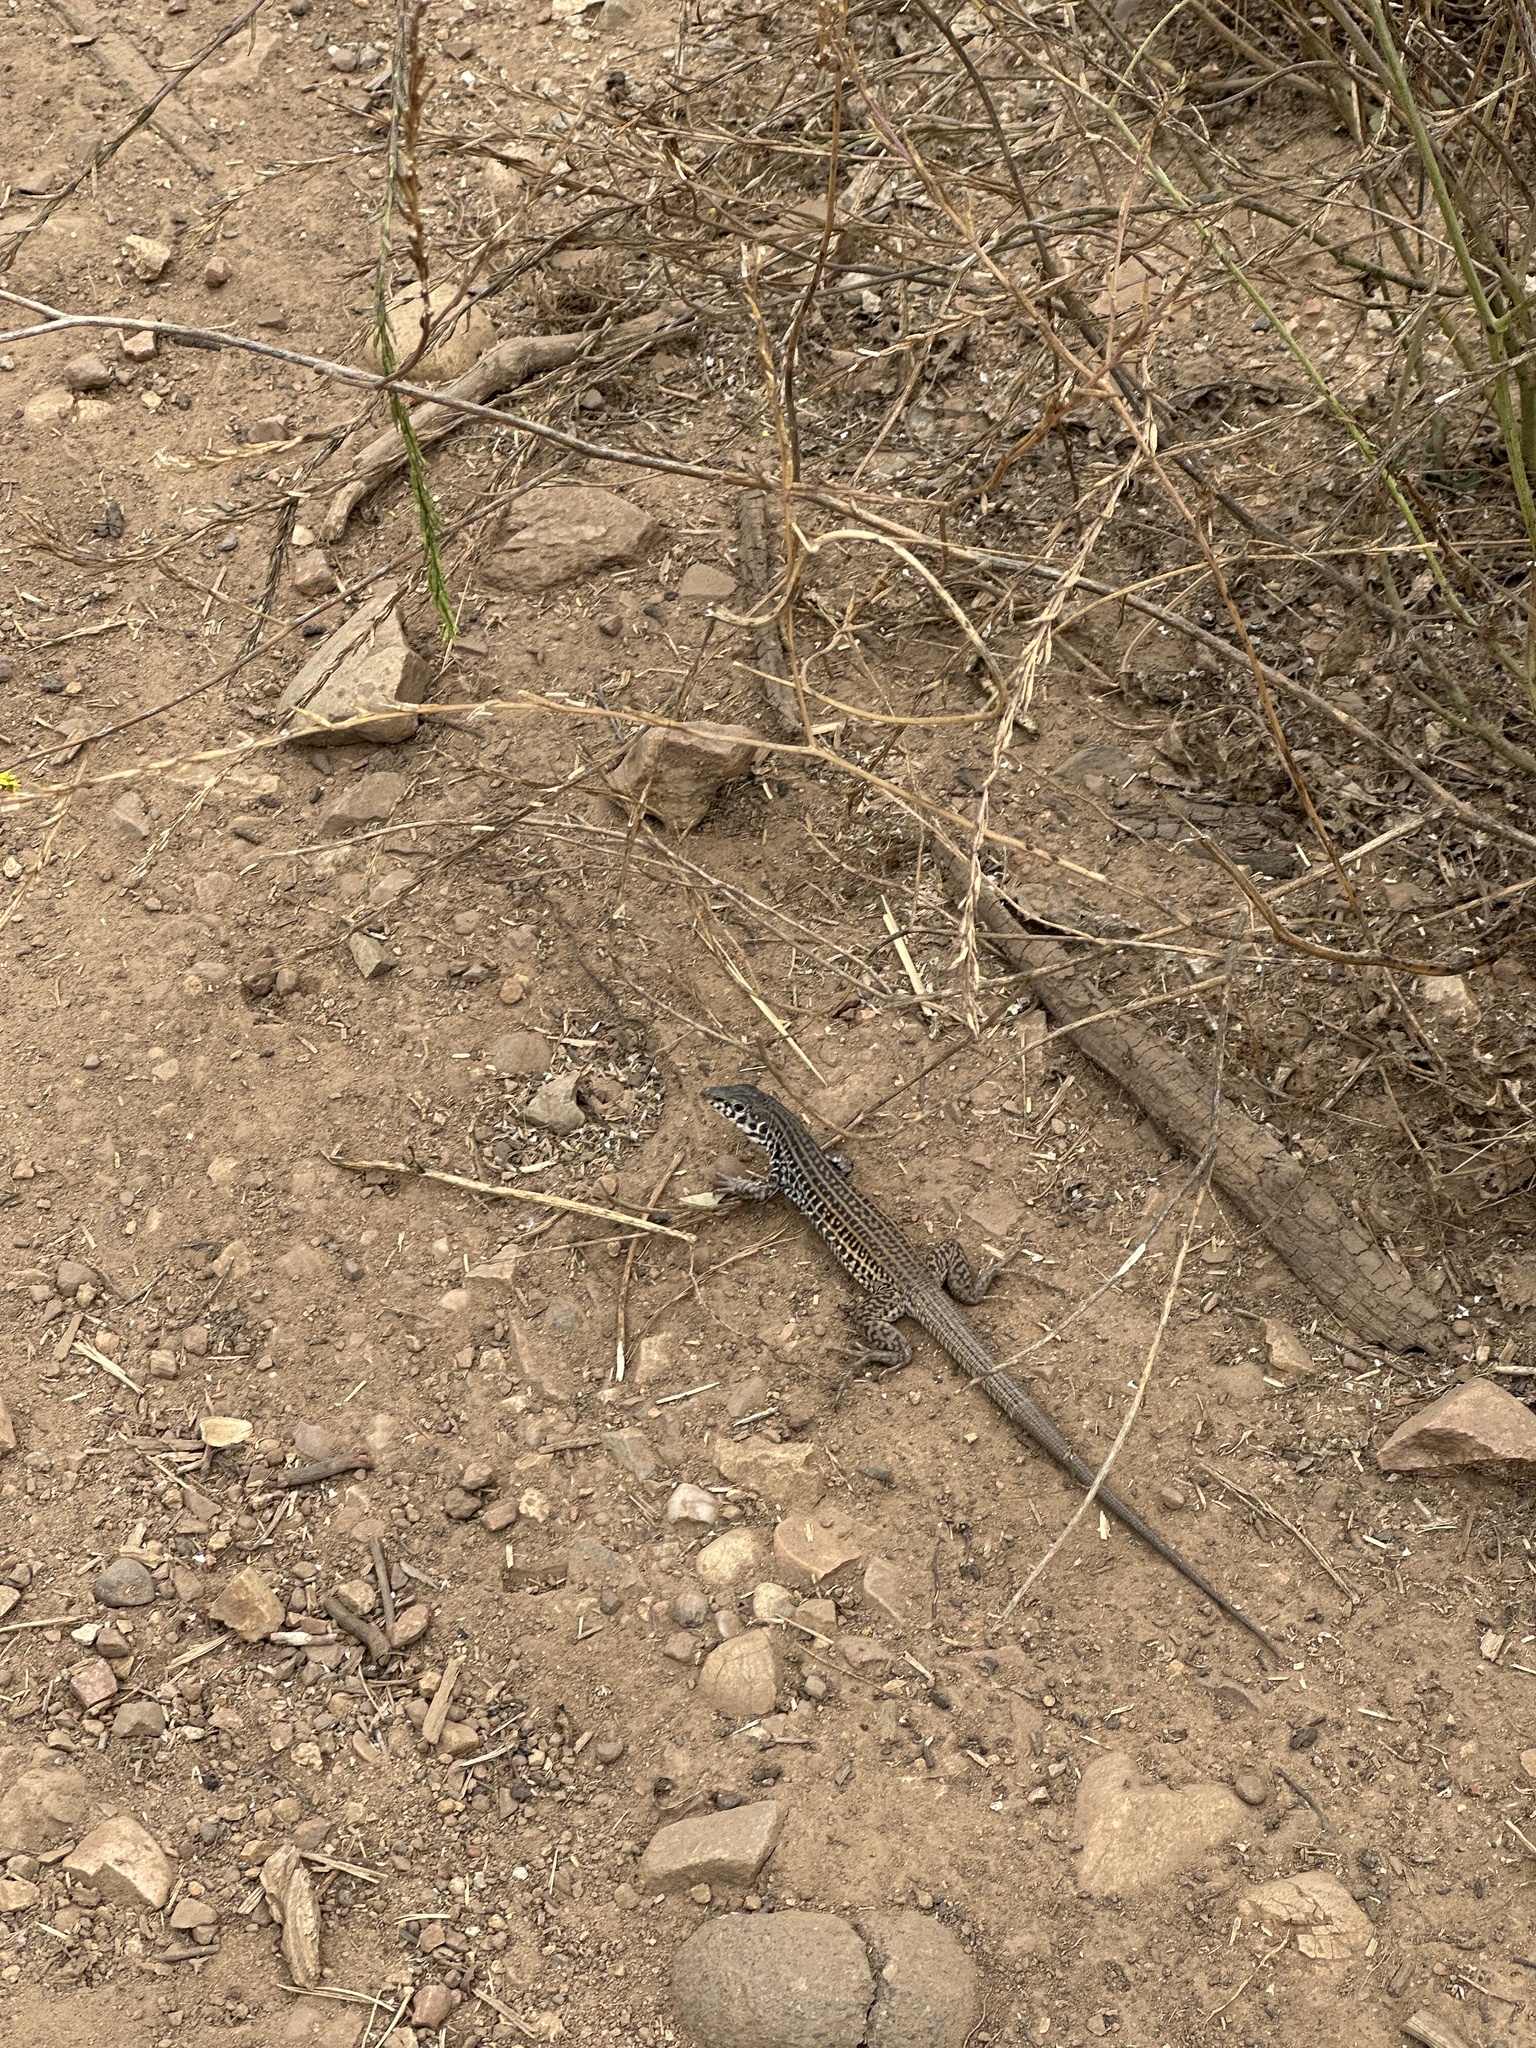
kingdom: Animalia
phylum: Chordata
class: Squamata
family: Teiidae
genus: Aspidoscelis
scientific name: Aspidoscelis tigris
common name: Tiger whiptail
